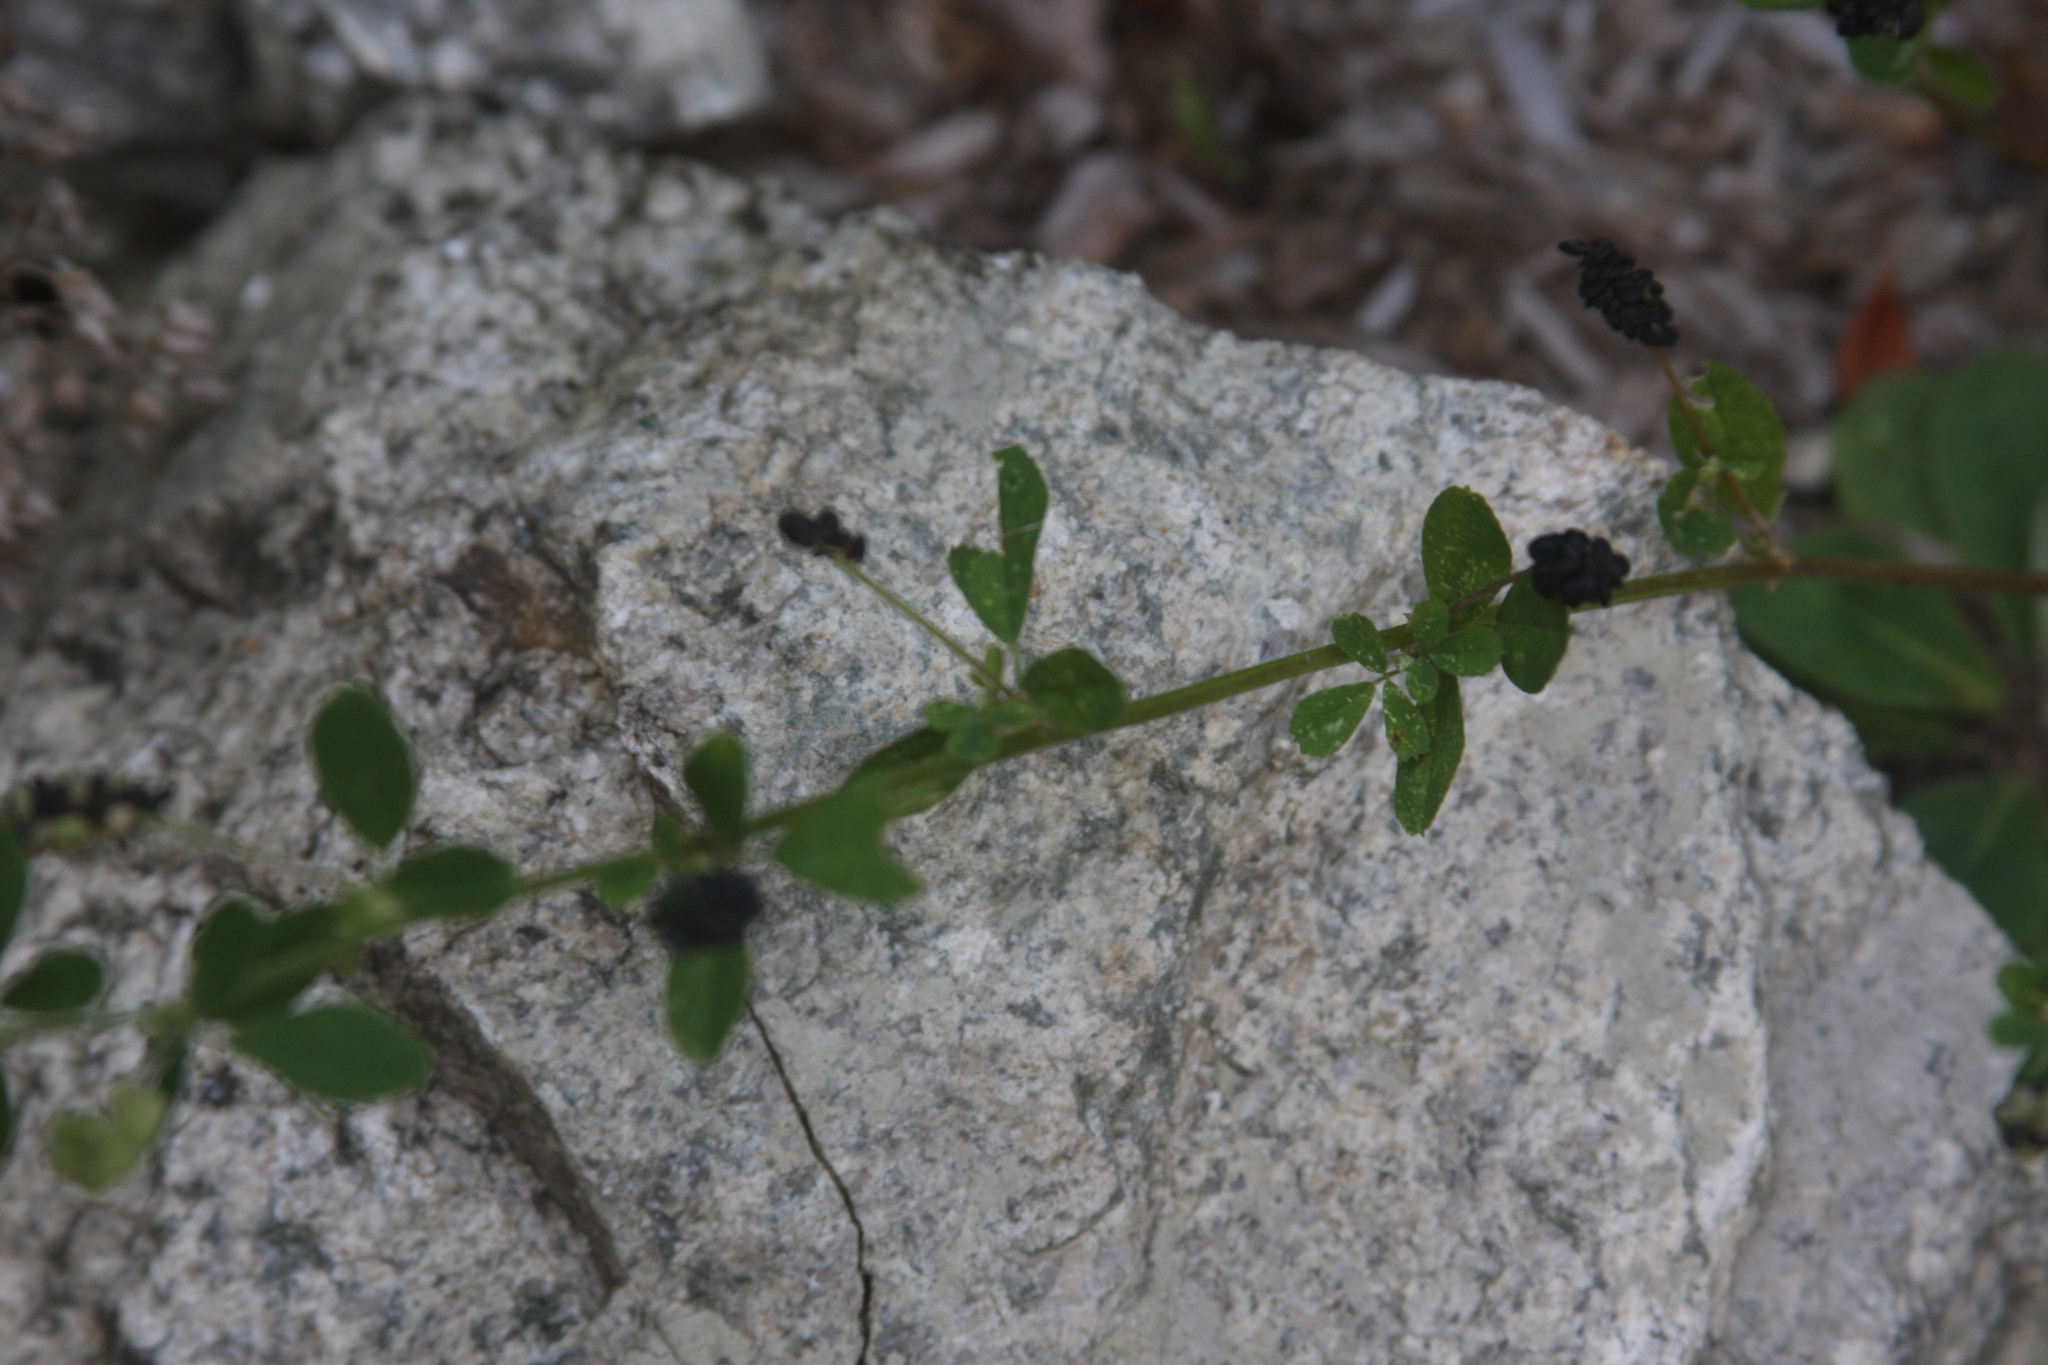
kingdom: Plantae
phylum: Tracheophyta
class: Magnoliopsida
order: Fabales
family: Fabaceae
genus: Medicago
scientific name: Medicago lupulina
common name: Black medick
